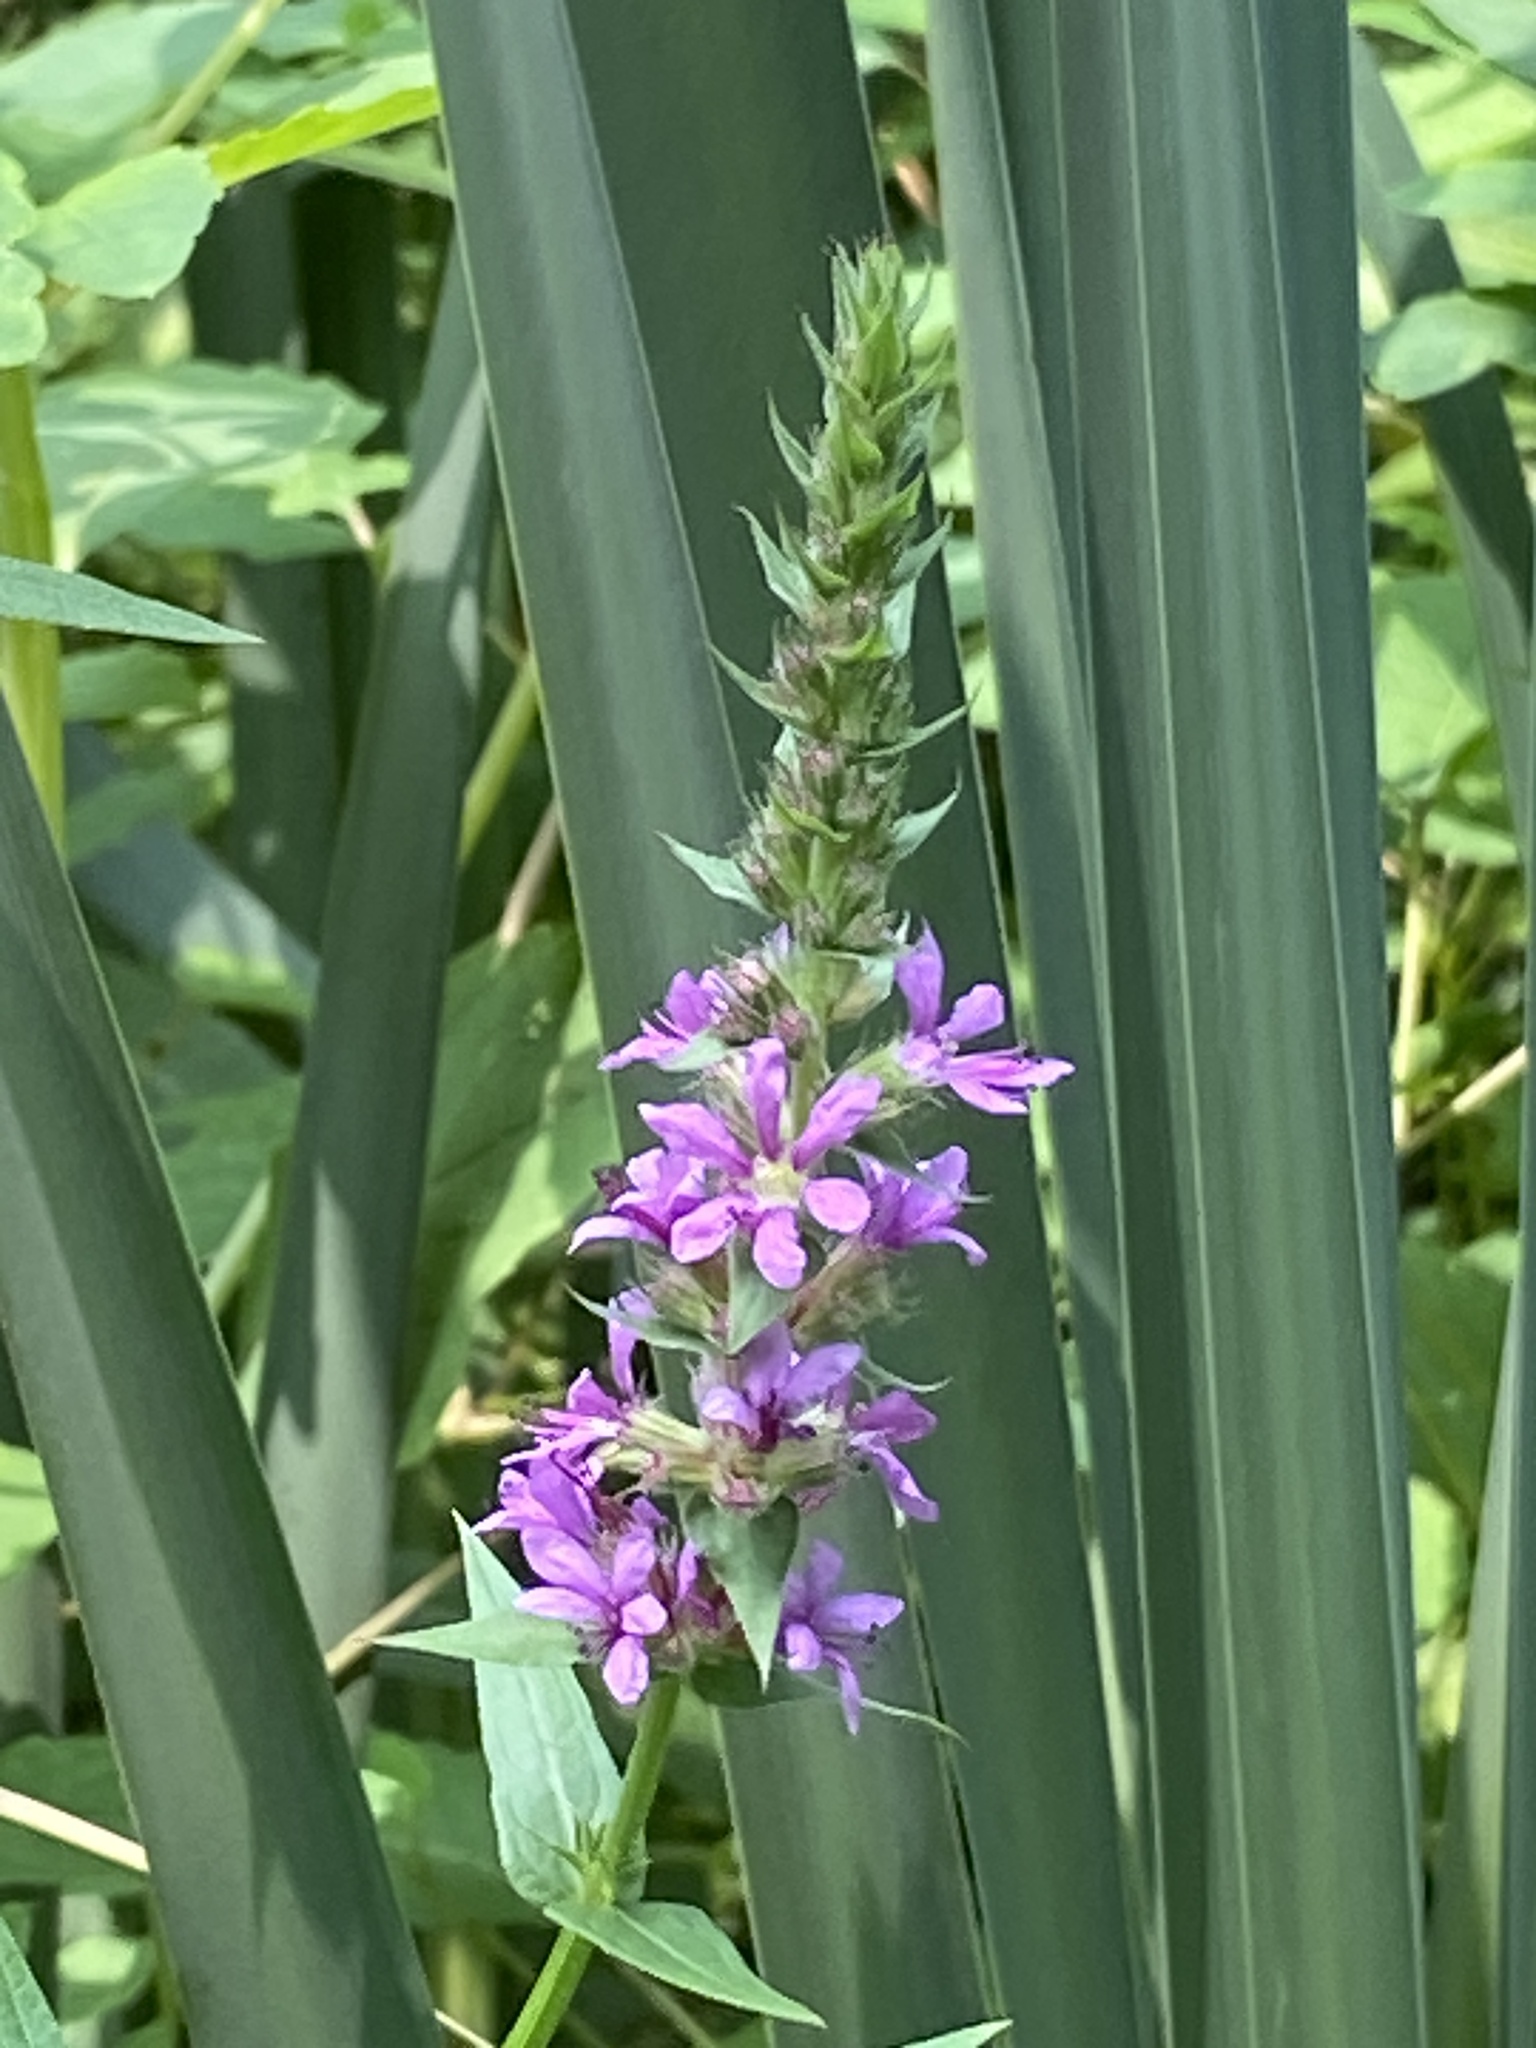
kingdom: Plantae
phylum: Tracheophyta
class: Magnoliopsida
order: Myrtales
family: Lythraceae
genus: Lythrum
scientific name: Lythrum salicaria
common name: Purple loosestrife
